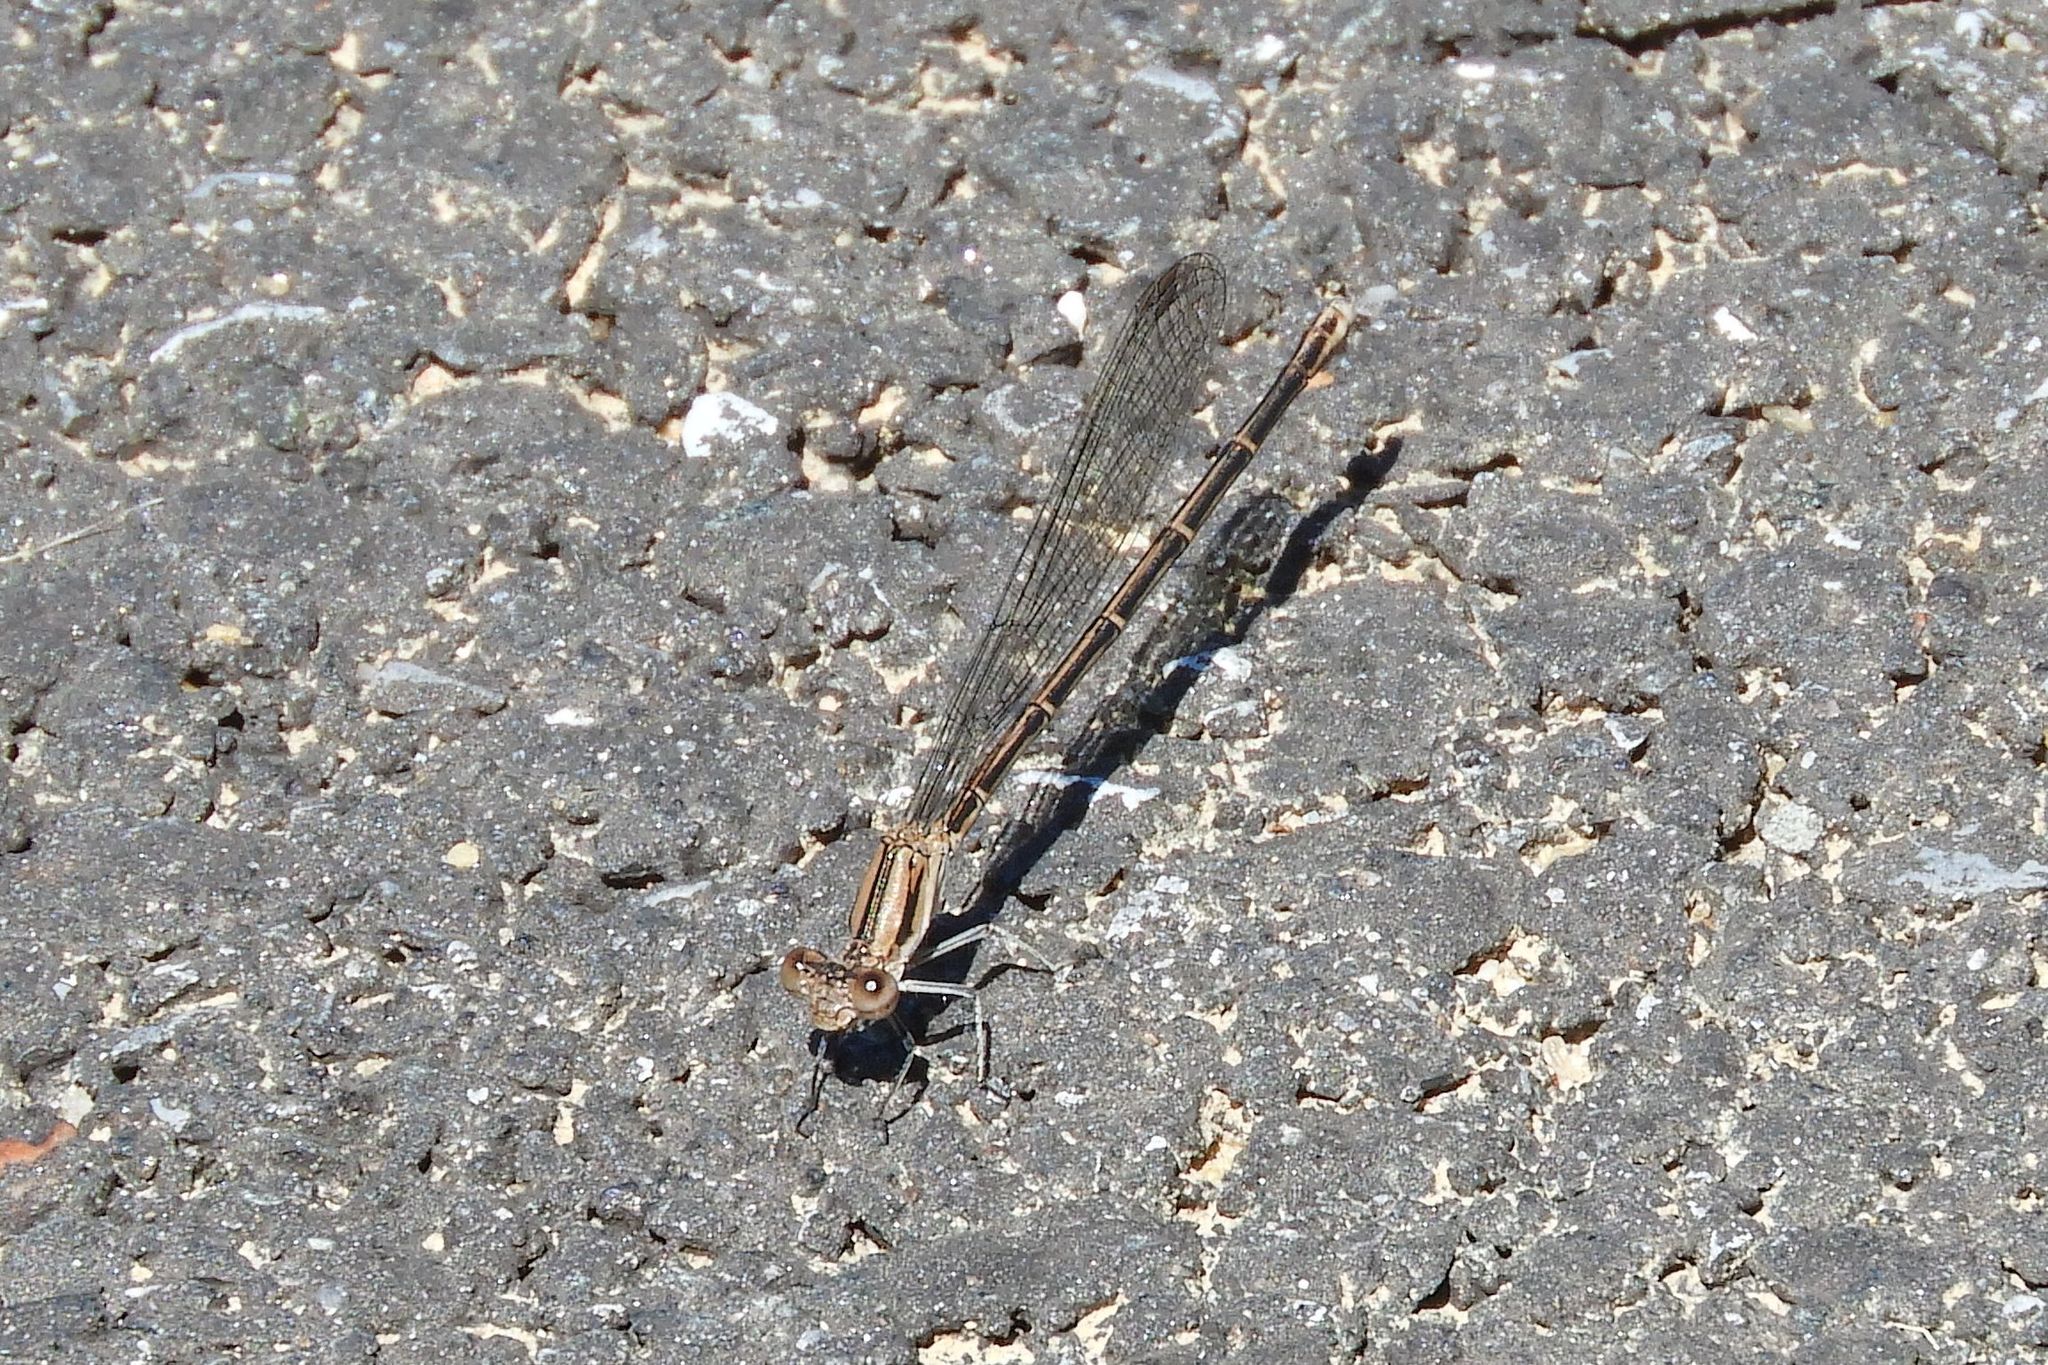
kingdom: Animalia
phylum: Arthropoda
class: Insecta
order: Odonata
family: Coenagrionidae
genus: Argia
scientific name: Argia fumipennis
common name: Variable dancer
